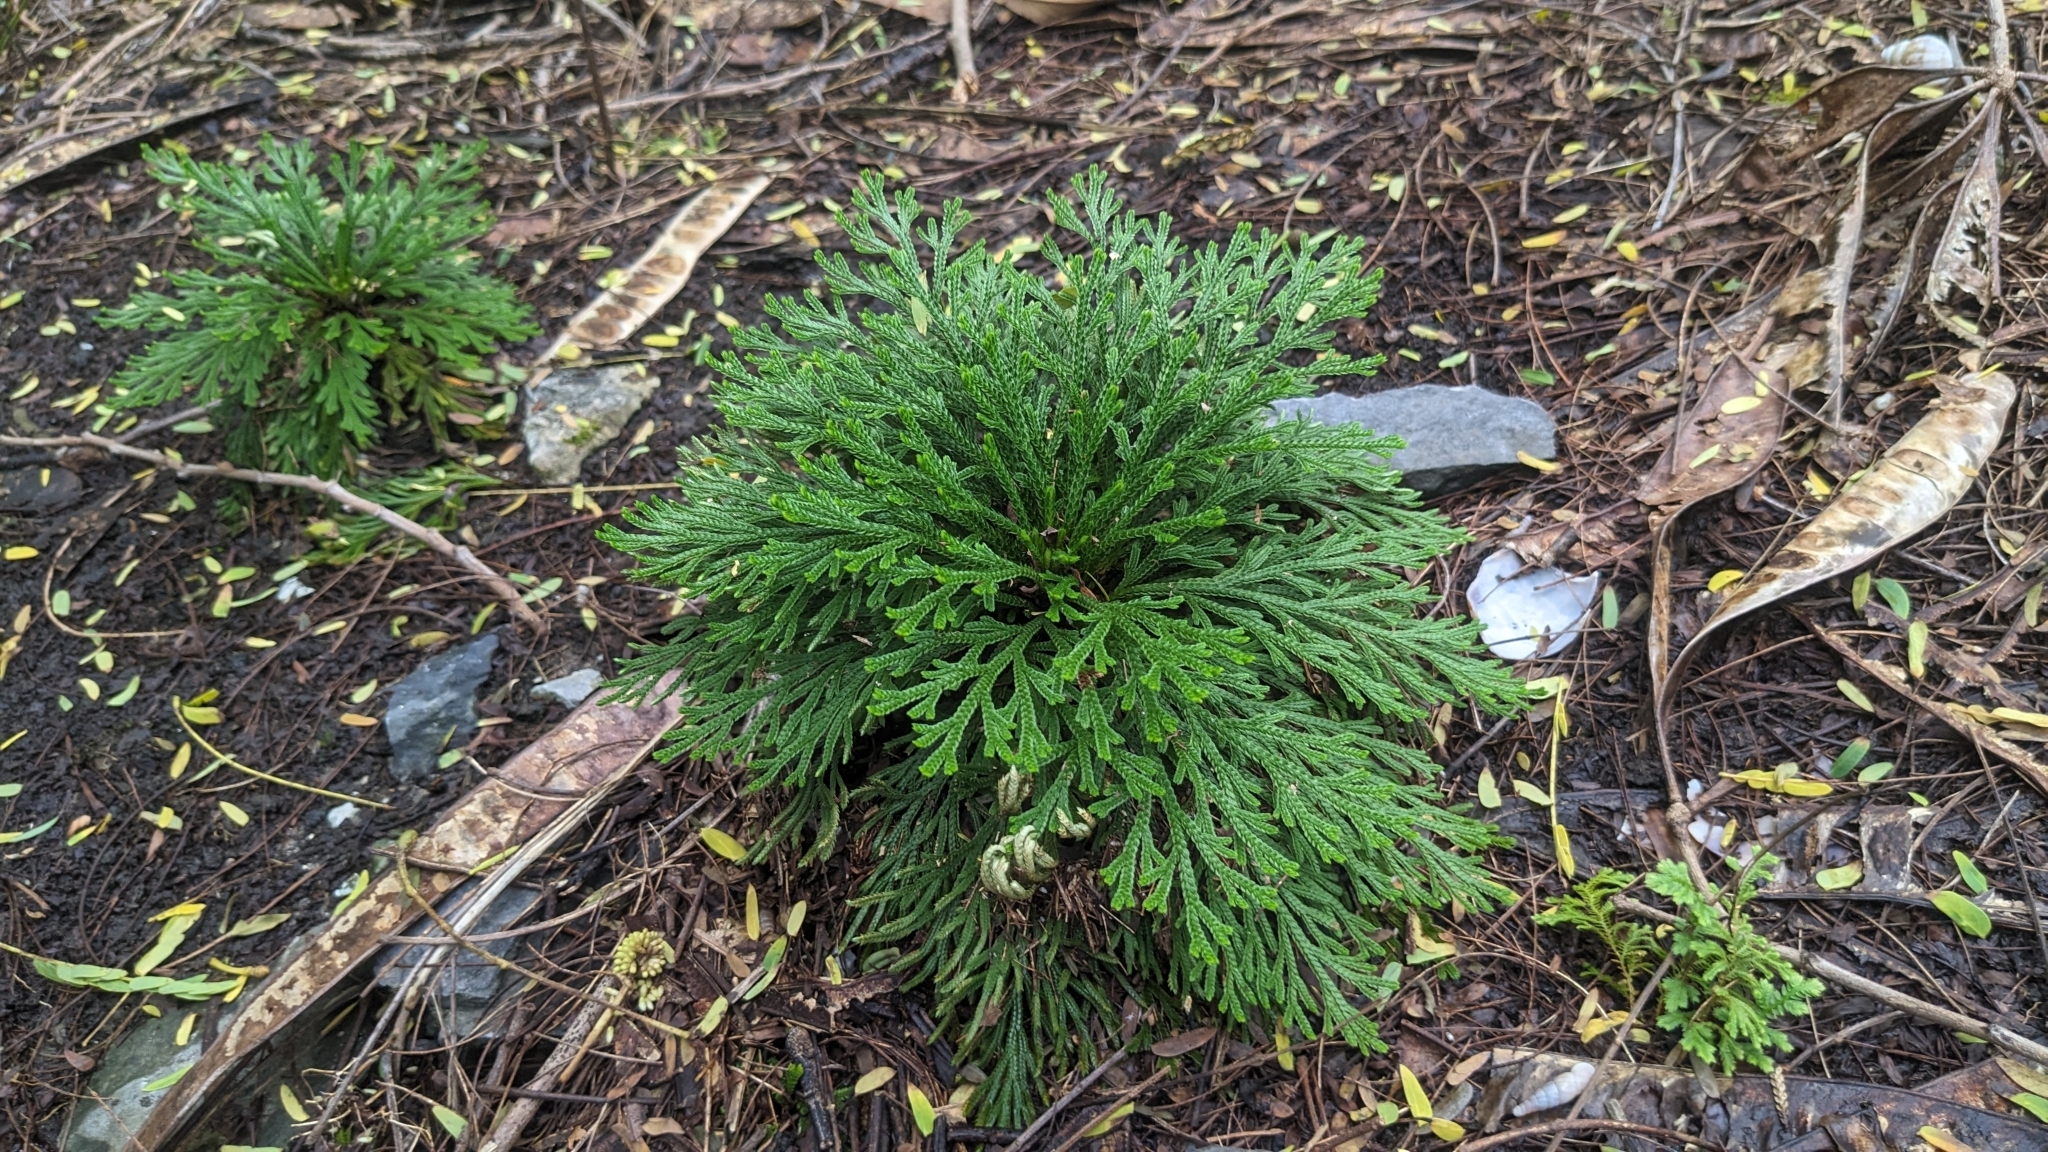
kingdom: Plantae
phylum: Tracheophyta
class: Lycopodiopsida
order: Selaginellales
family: Selaginellaceae
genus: Selaginella
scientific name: Selaginella tamariscina
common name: Little-club-moss
